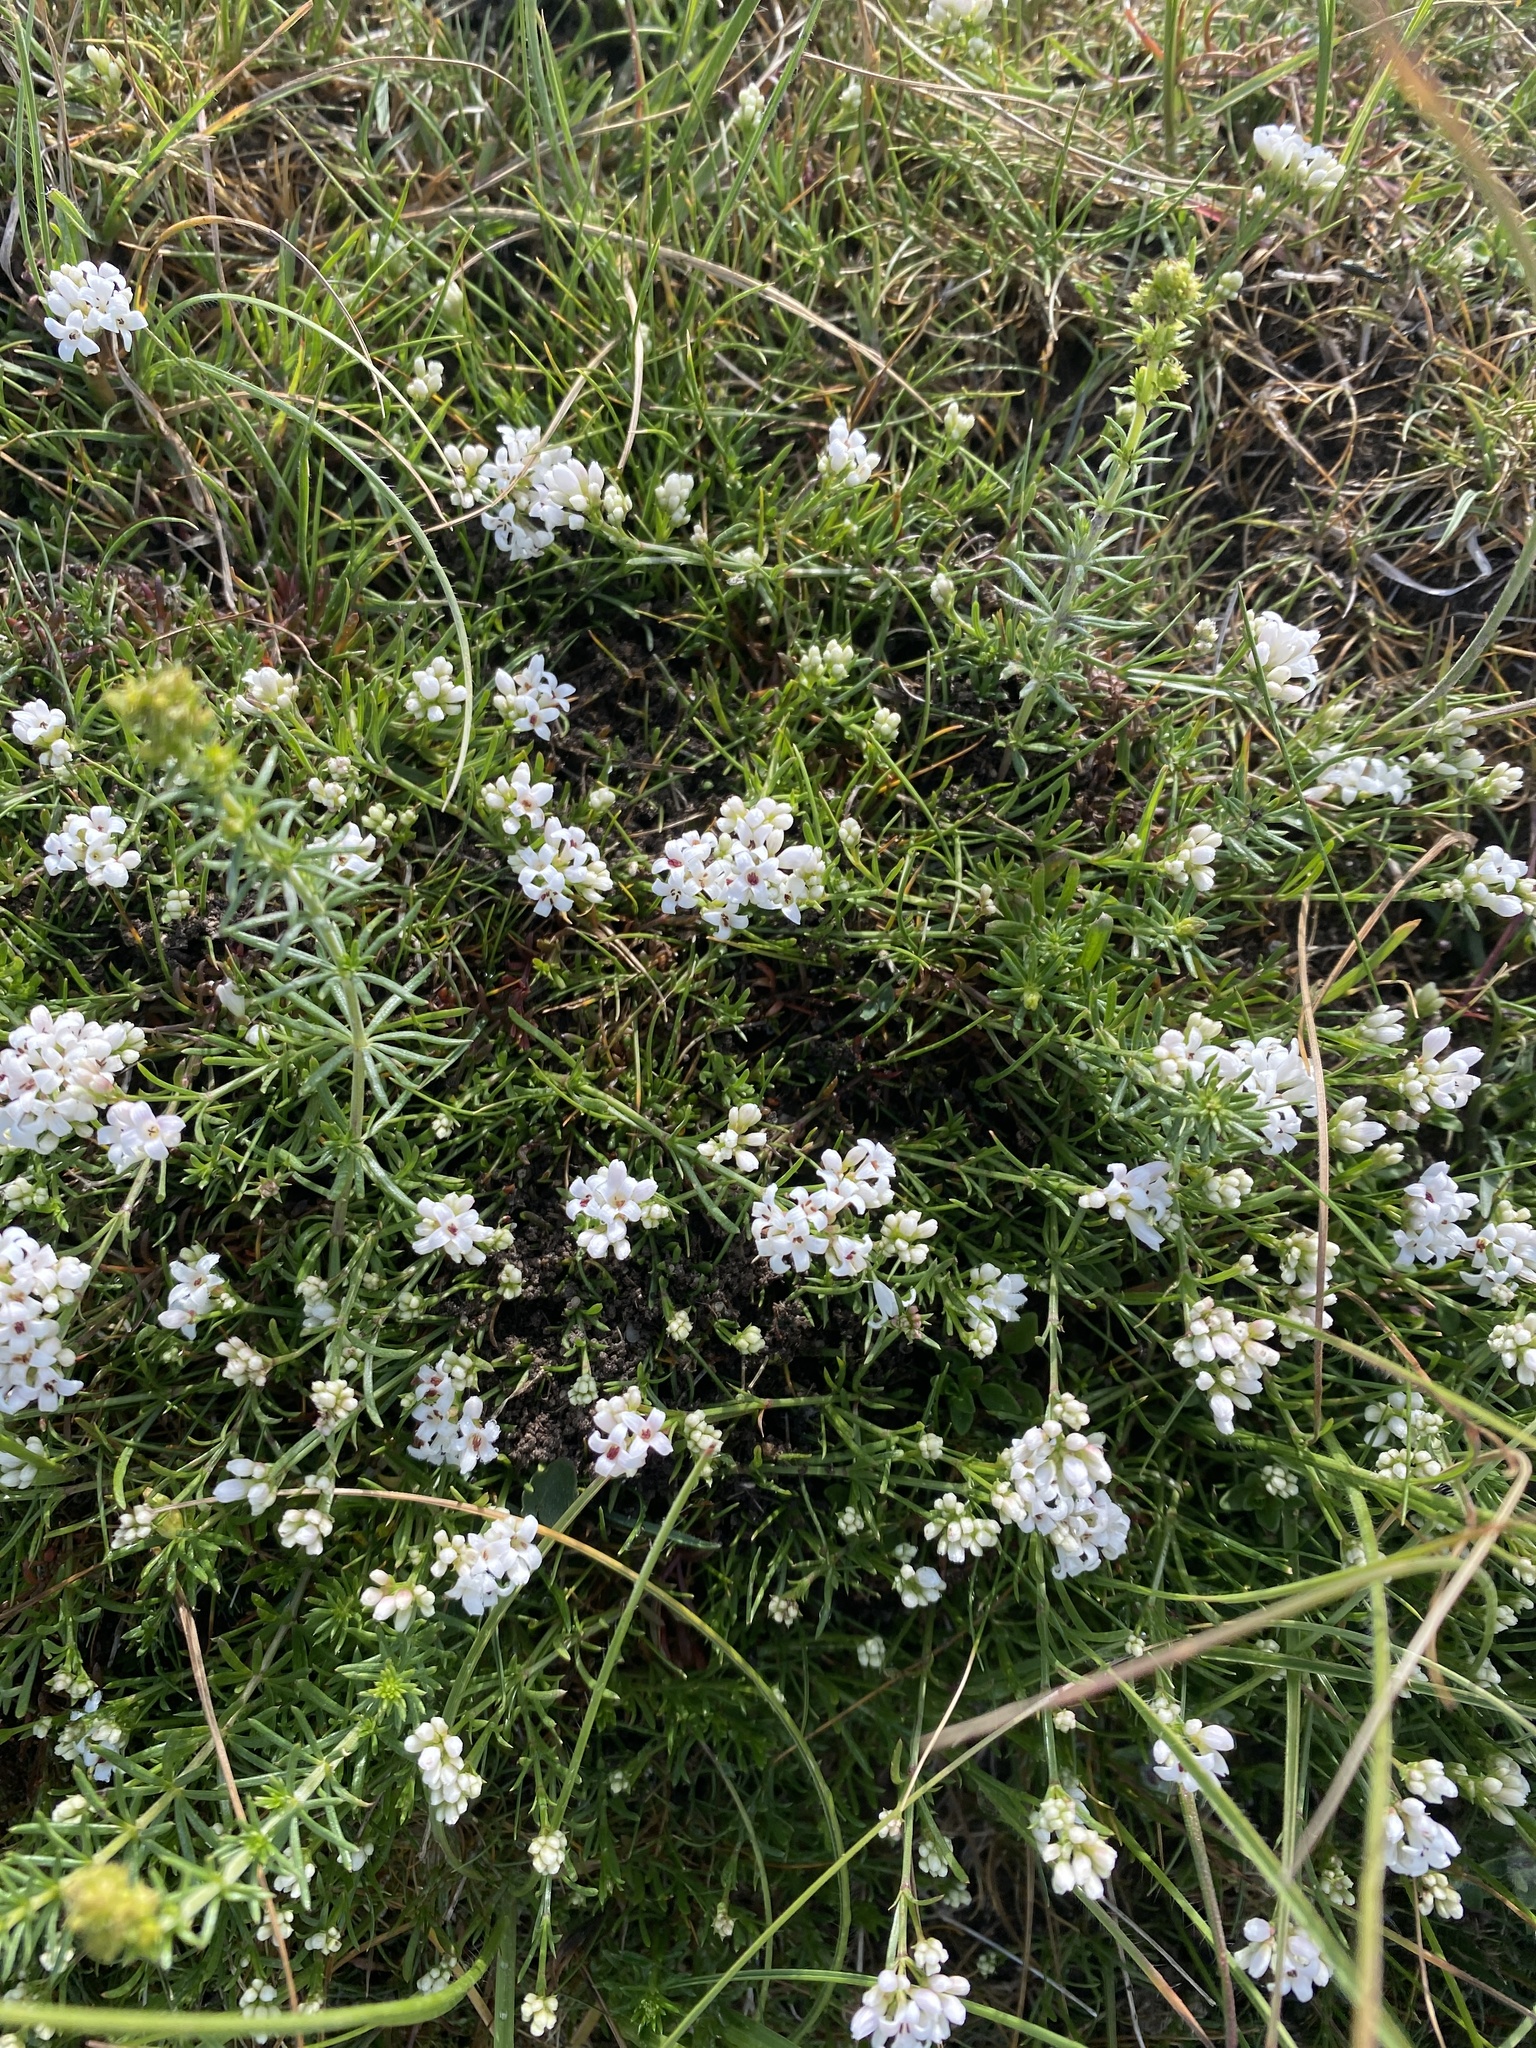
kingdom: Plantae
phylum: Tracheophyta
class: Magnoliopsida
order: Gentianales
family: Rubiaceae
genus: Cynanchica
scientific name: Cynanchica pyrenaica
